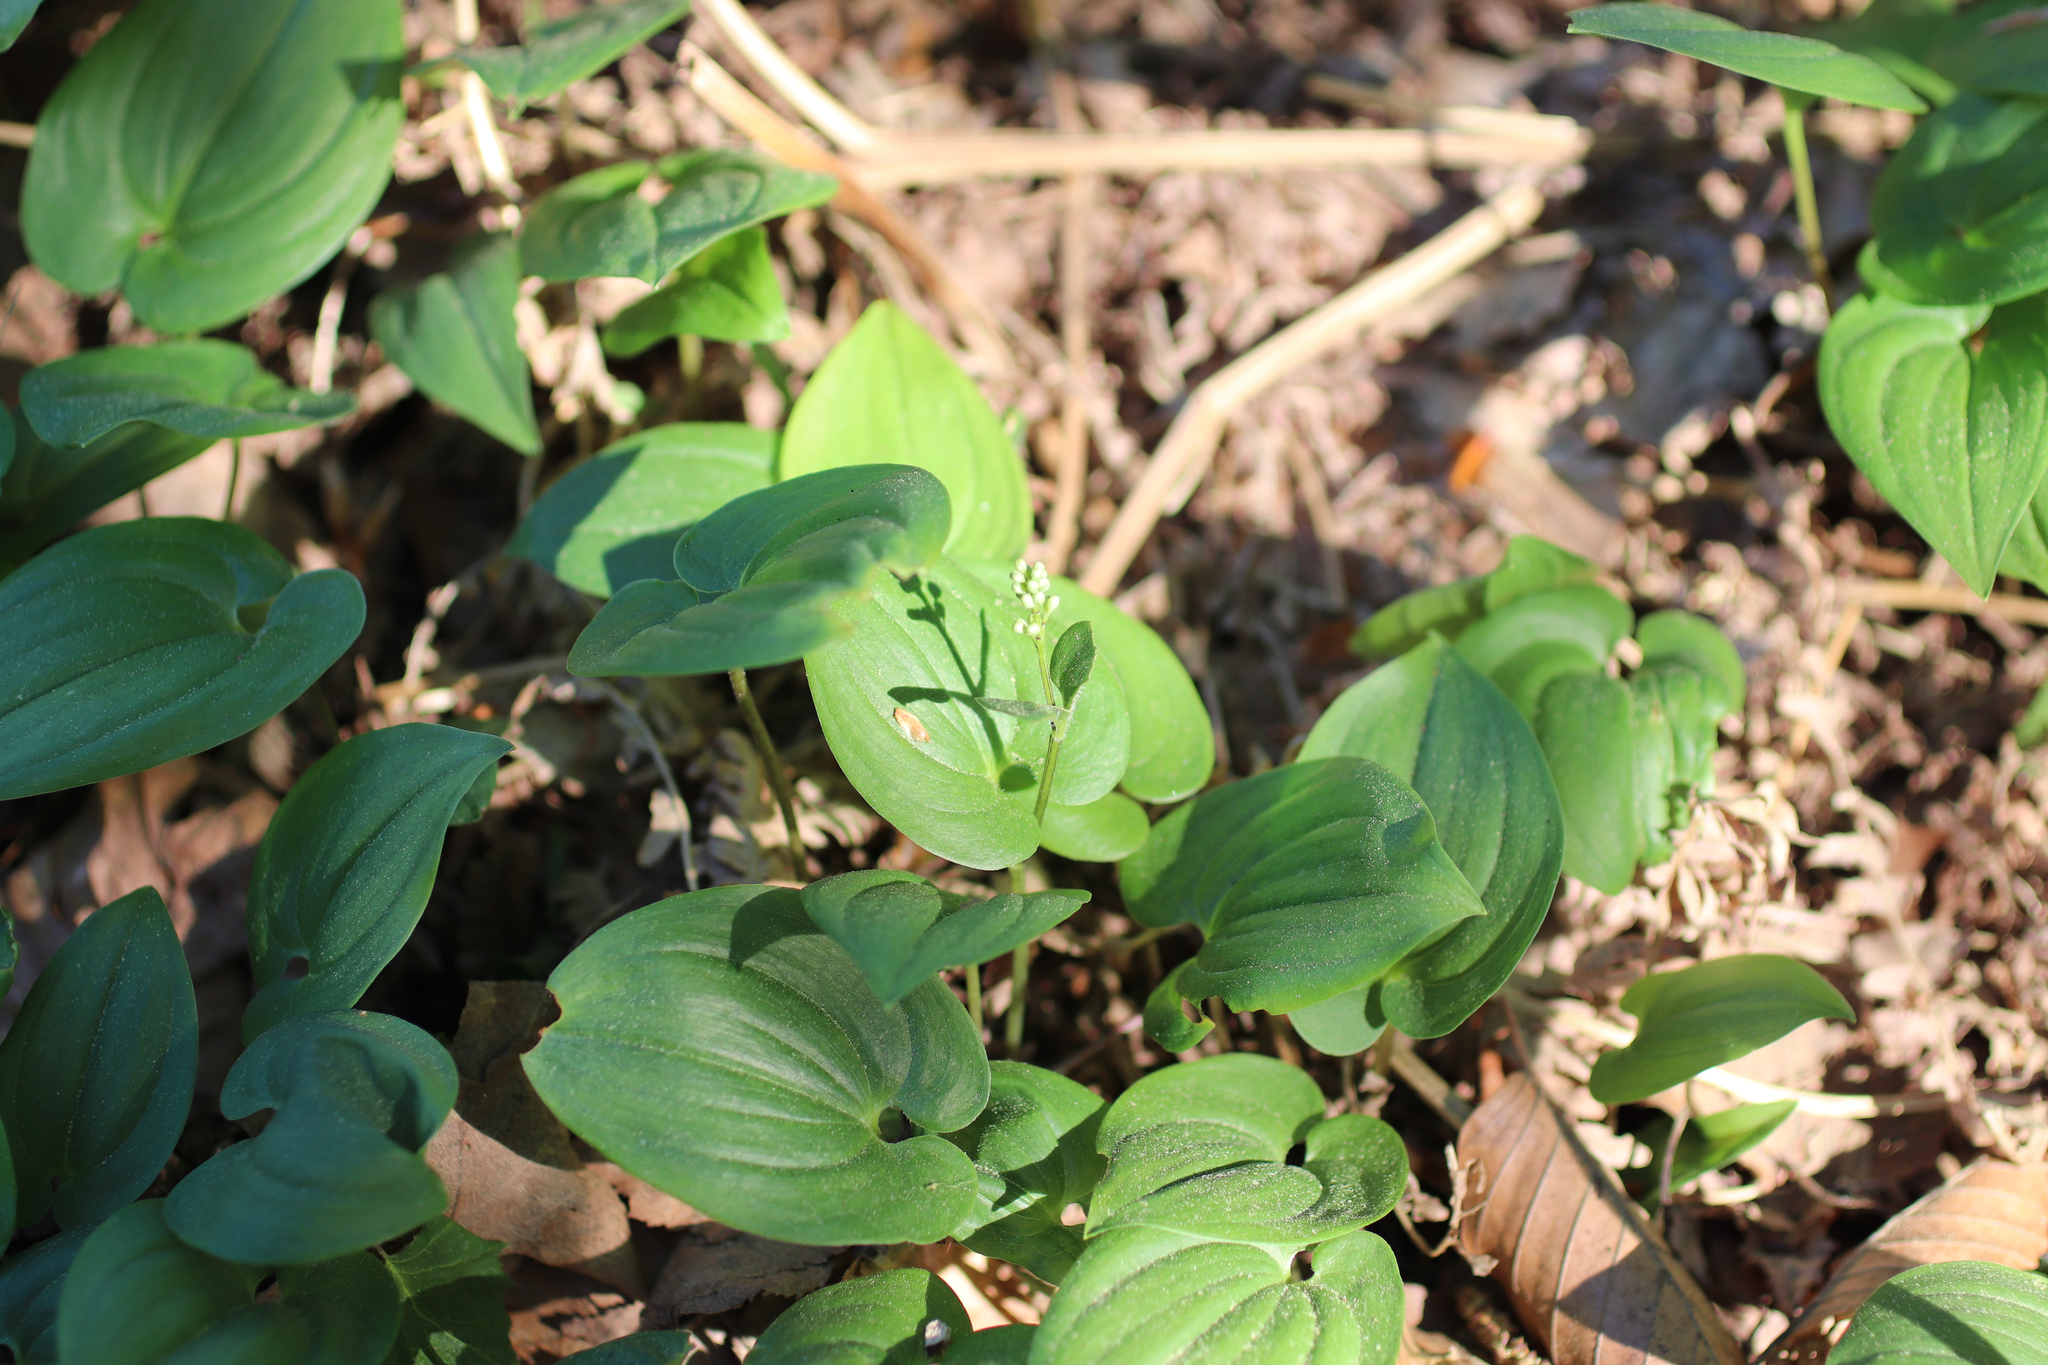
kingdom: Plantae
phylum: Tracheophyta
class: Liliopsida
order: Asparagales
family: Asparagaceae
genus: Maianthemum
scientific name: Maianthemum bifolium
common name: May lily
